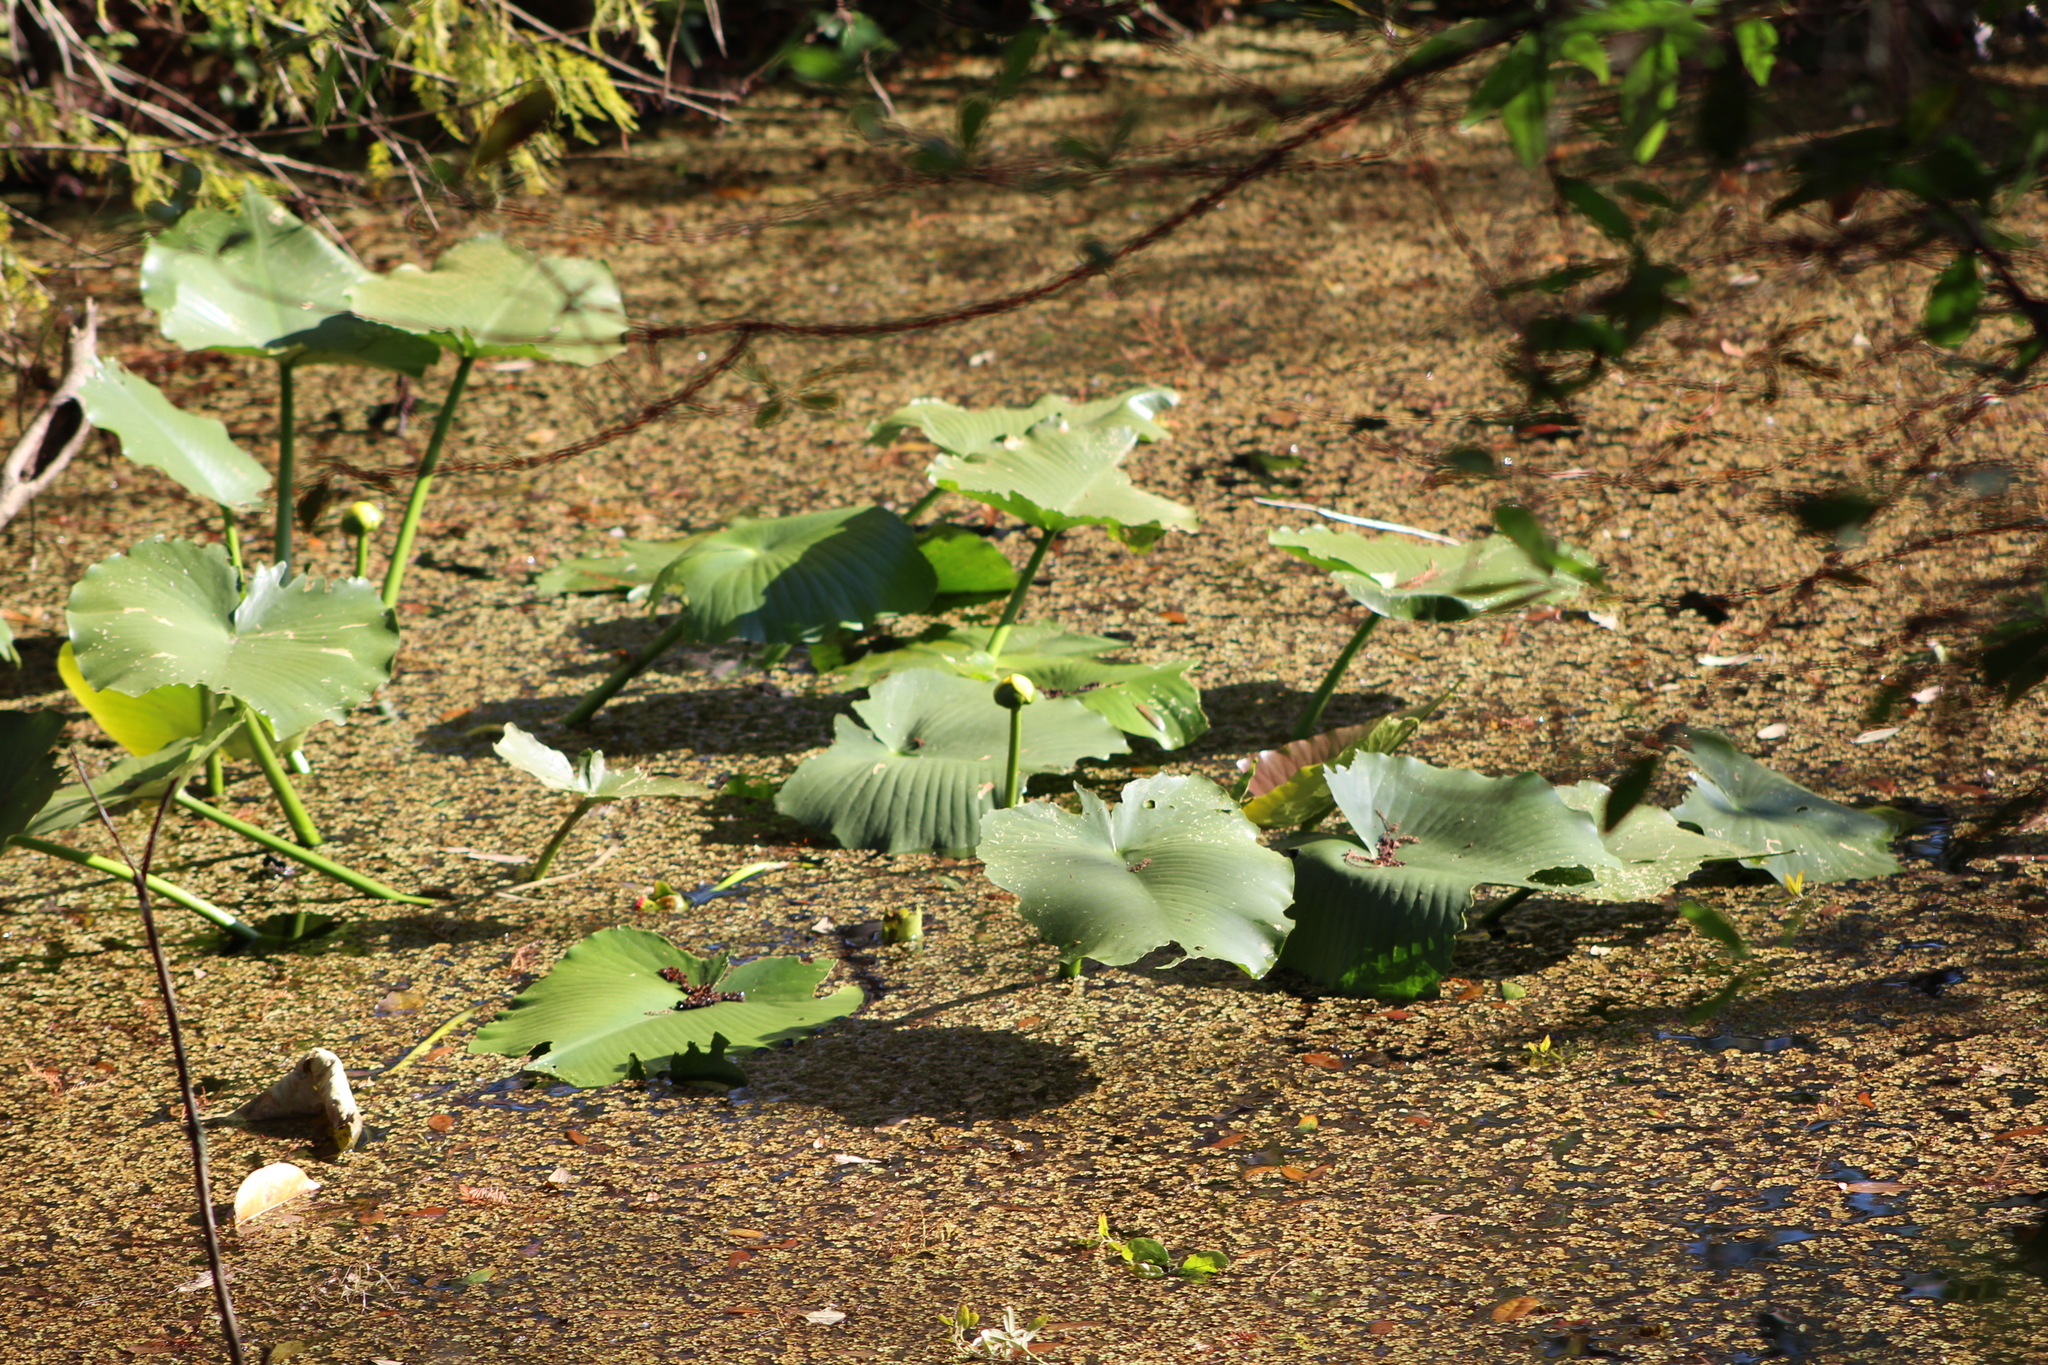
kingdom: Plantae
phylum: Tracheophyta
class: Magnoliopsida
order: Nymphaeales
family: Nymphaeaceae
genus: Nuphar
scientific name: Nuphar advena
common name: Spatter-dock
